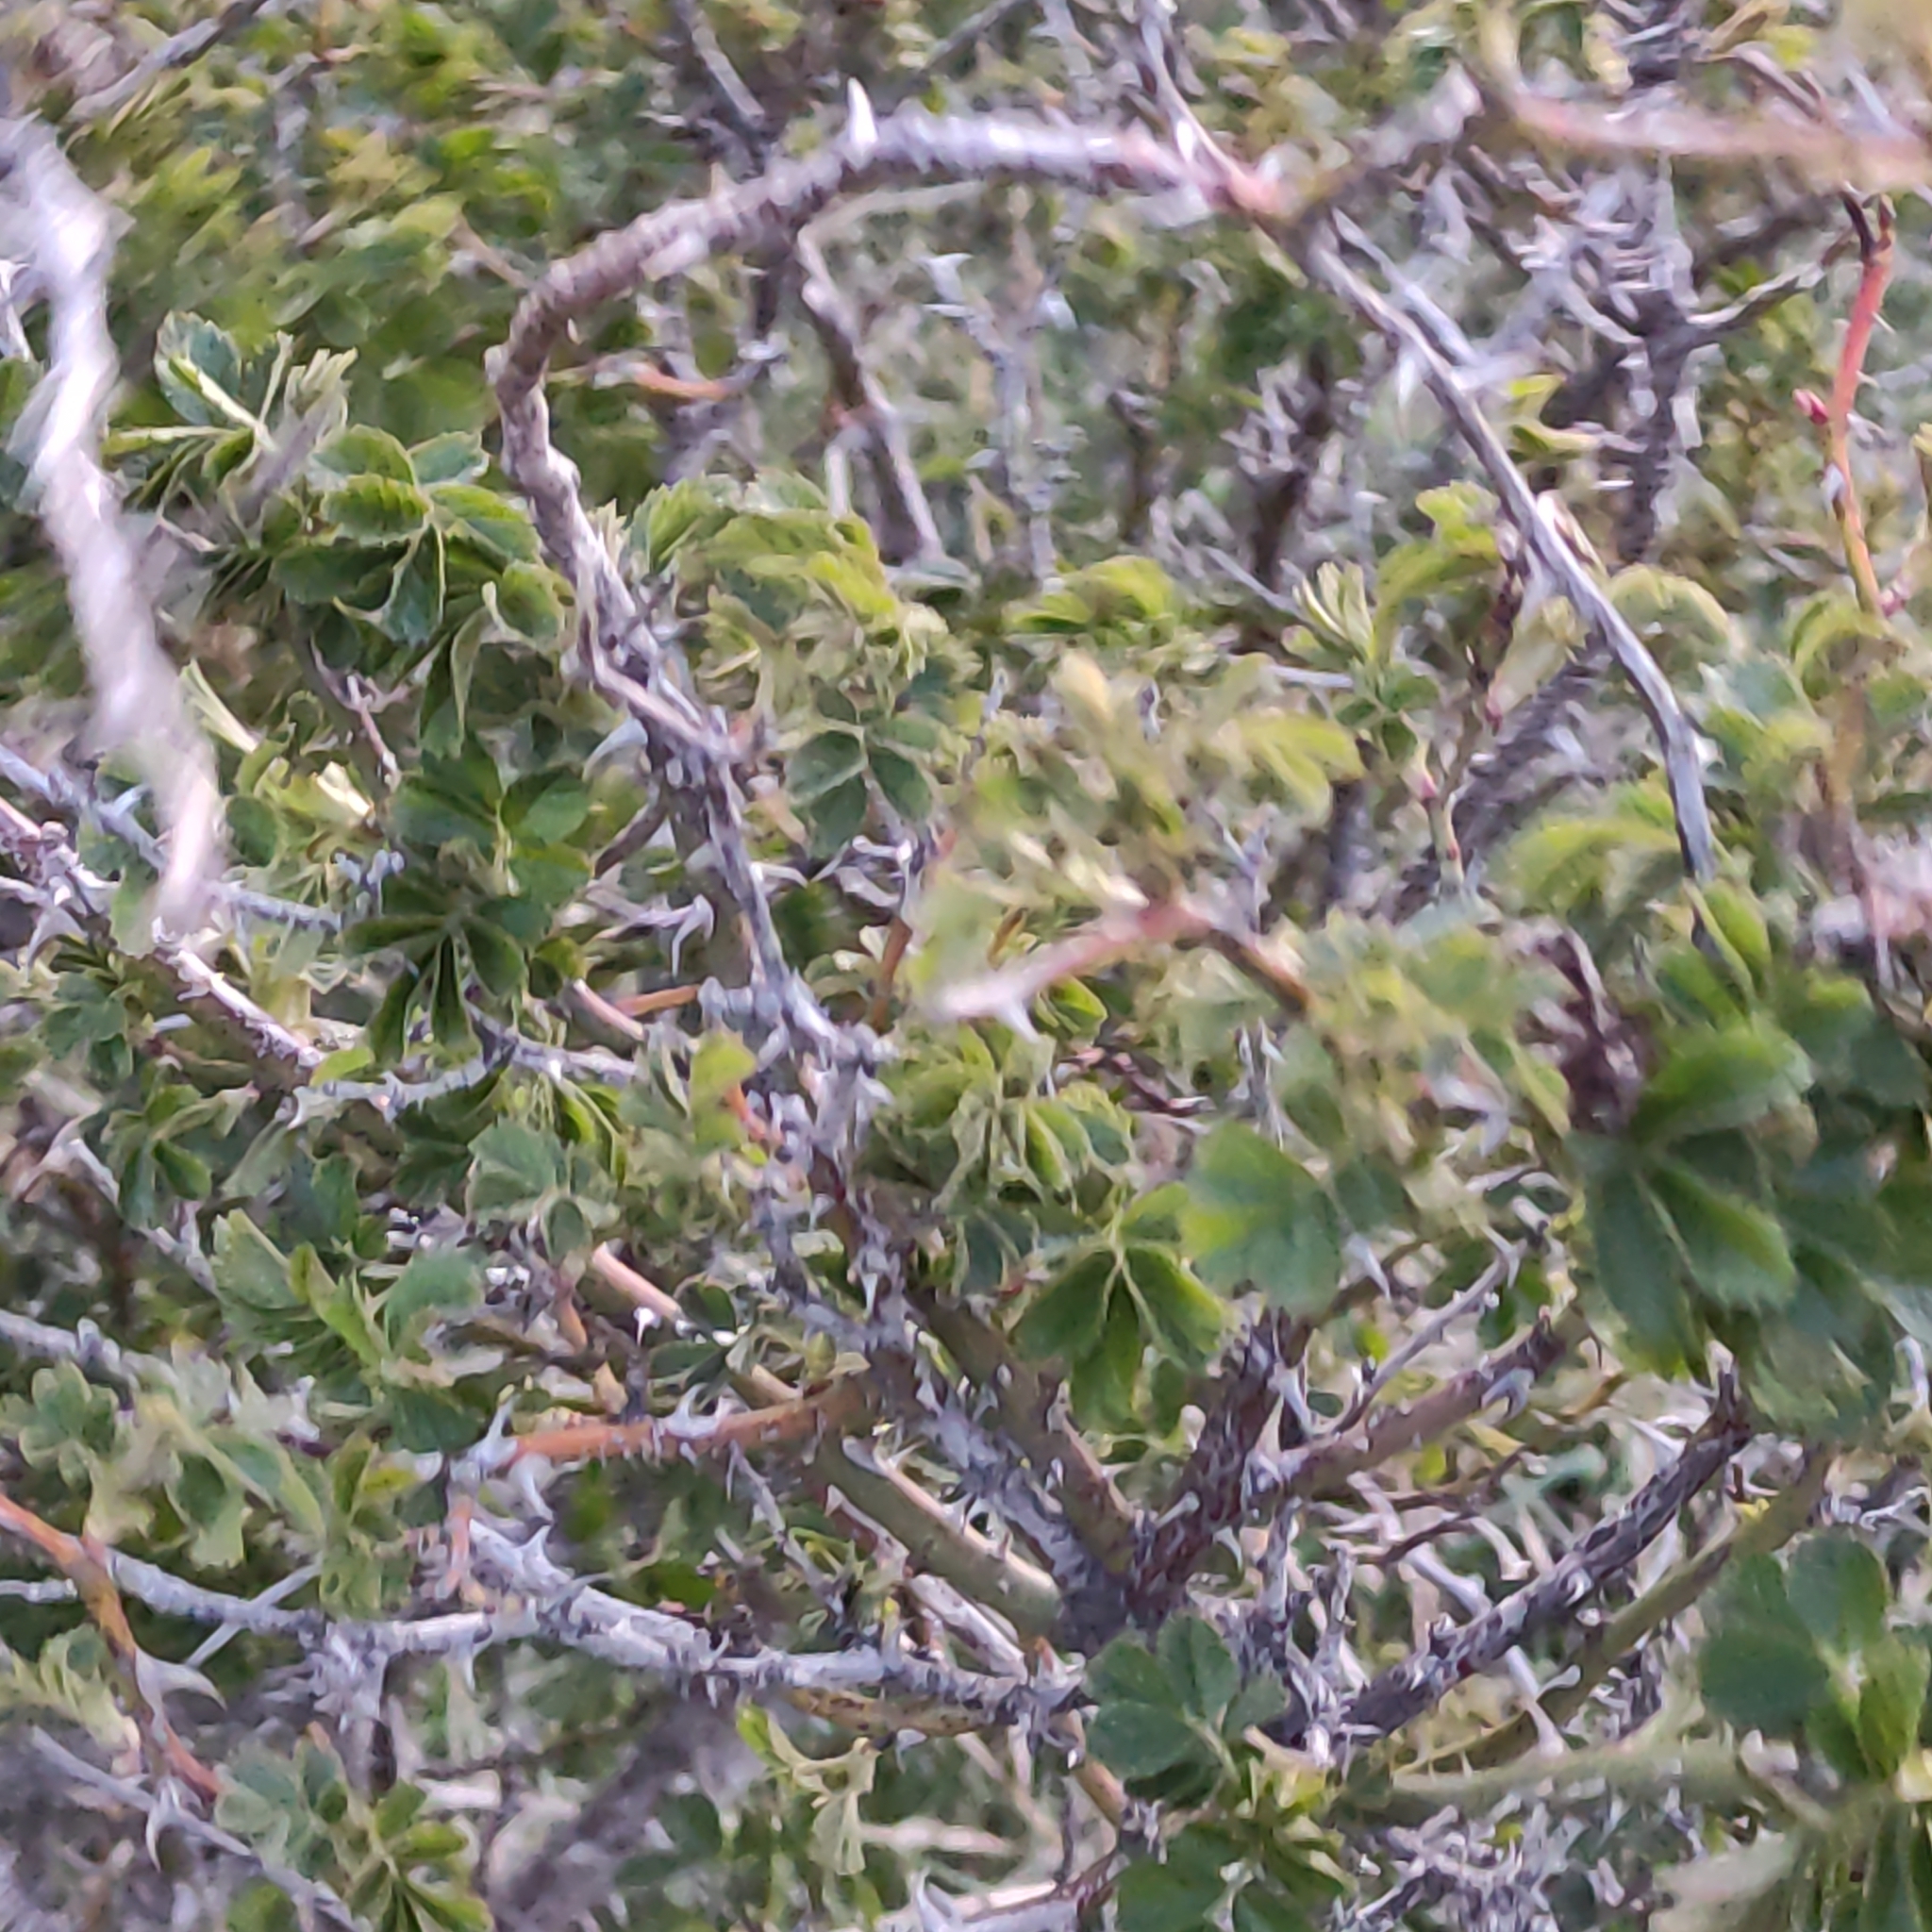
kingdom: Plantae
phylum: Tracheophyta
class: Magnoliopsida
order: Rosales
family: Rosaceae
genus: Rosa
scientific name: Rosa rubiginosa
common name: Sweet-briar
